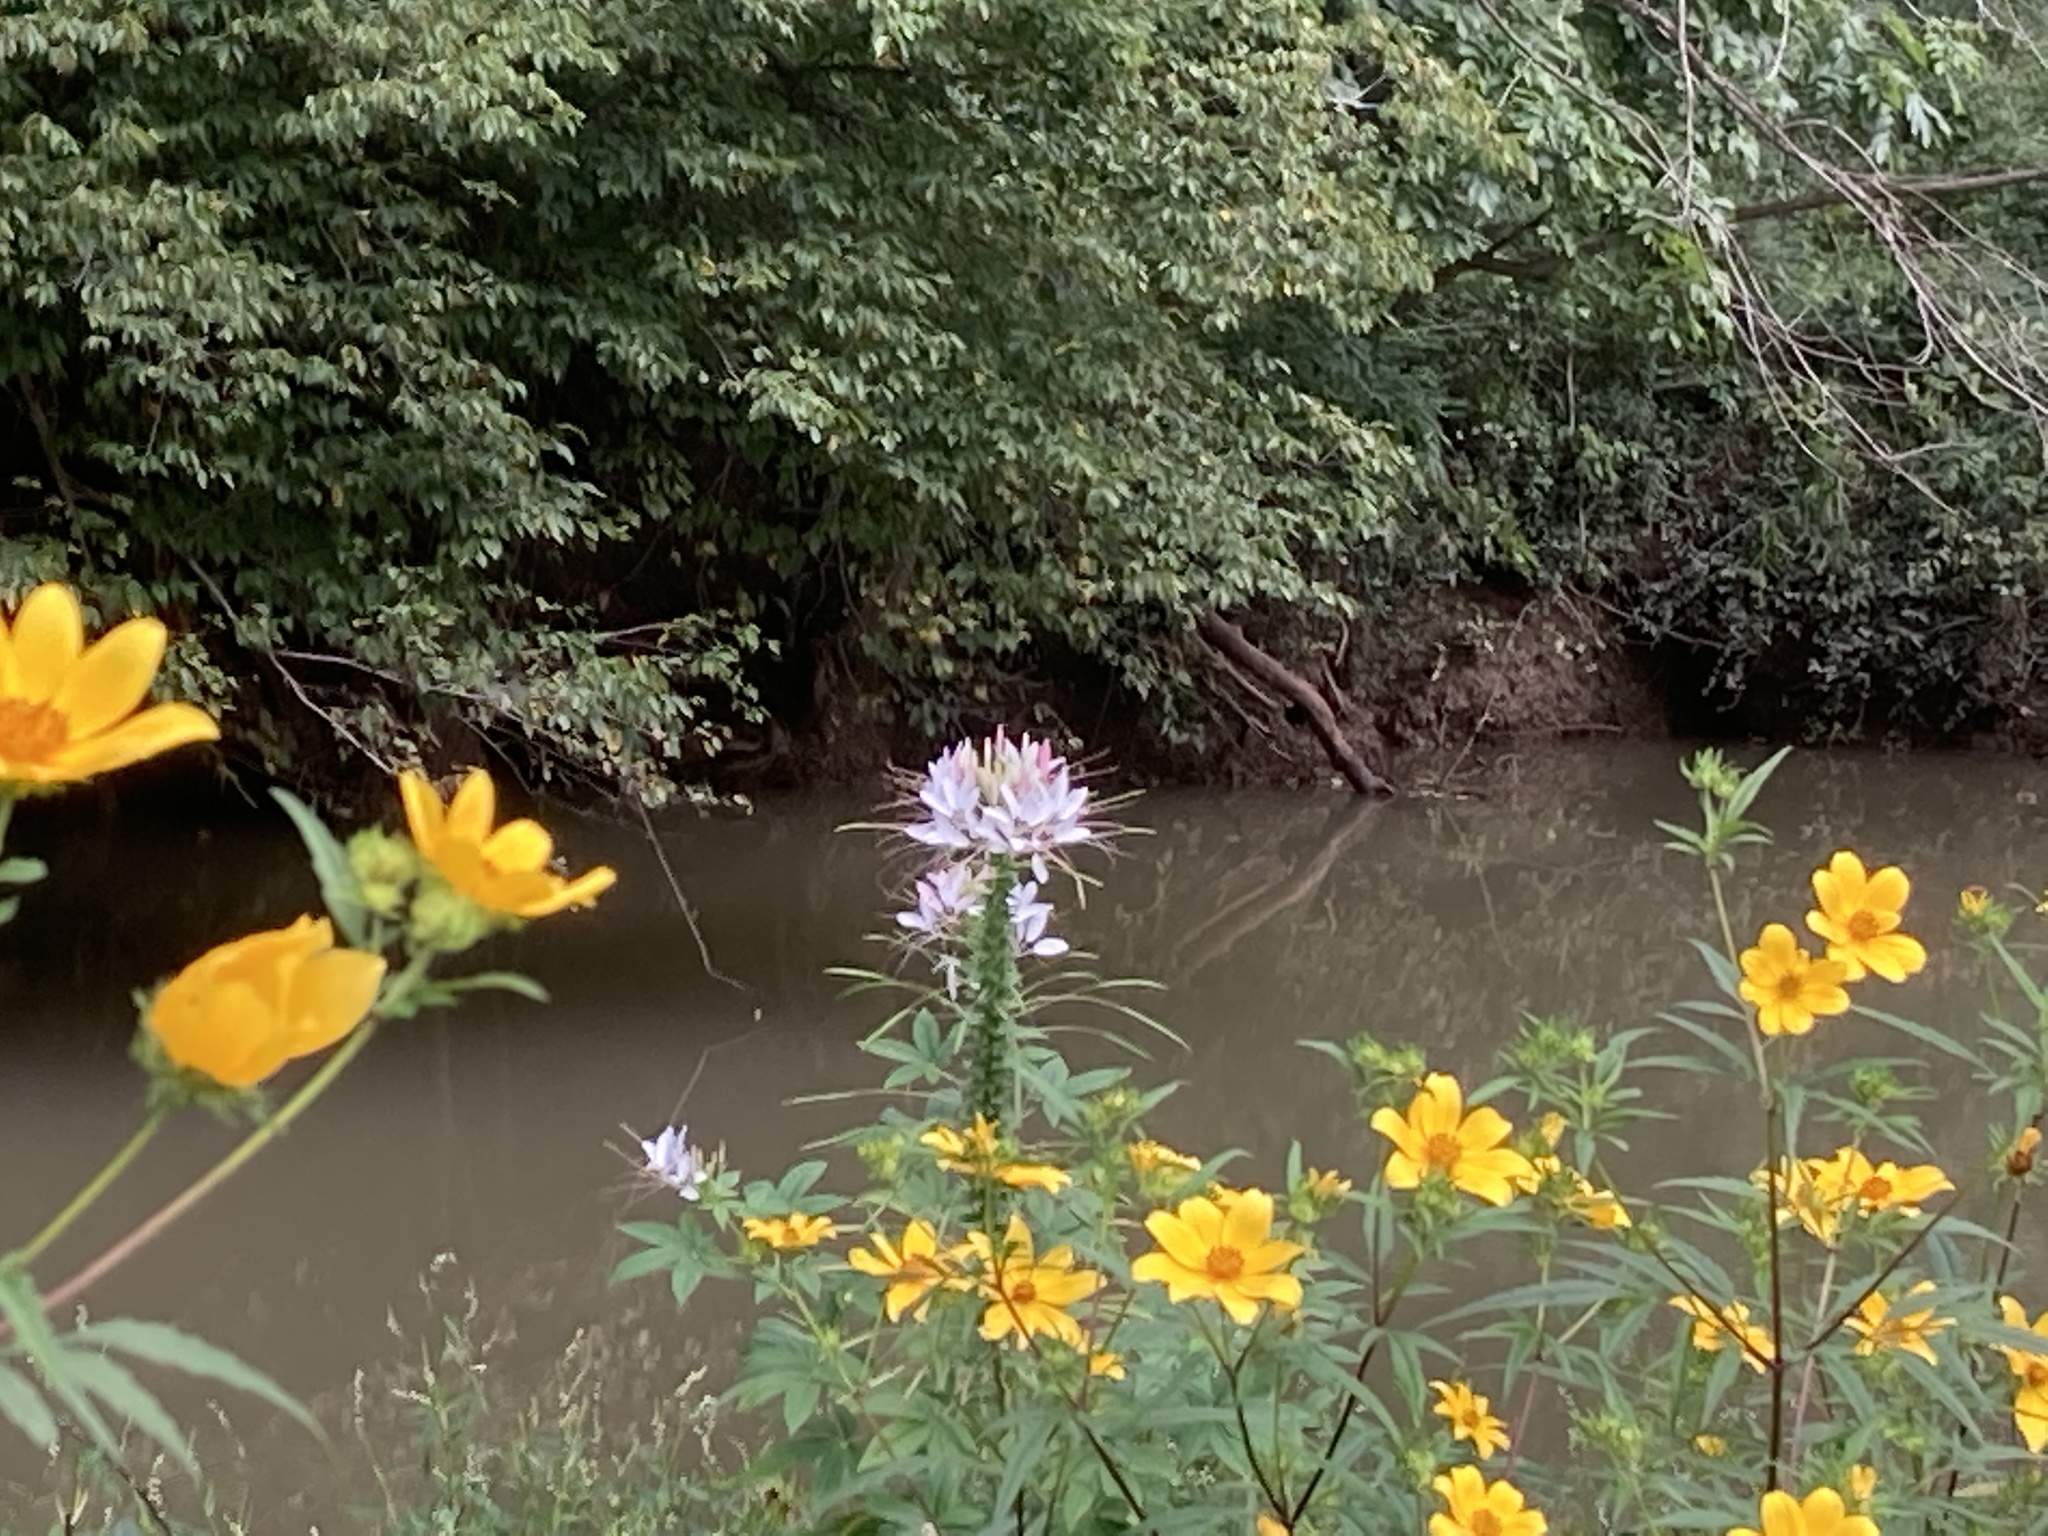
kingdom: Plantae
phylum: Tracheophyta
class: Magnoliopsida
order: Brassicales
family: Cleomaceae
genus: Tarenaya
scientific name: Tarenaya houtteana
